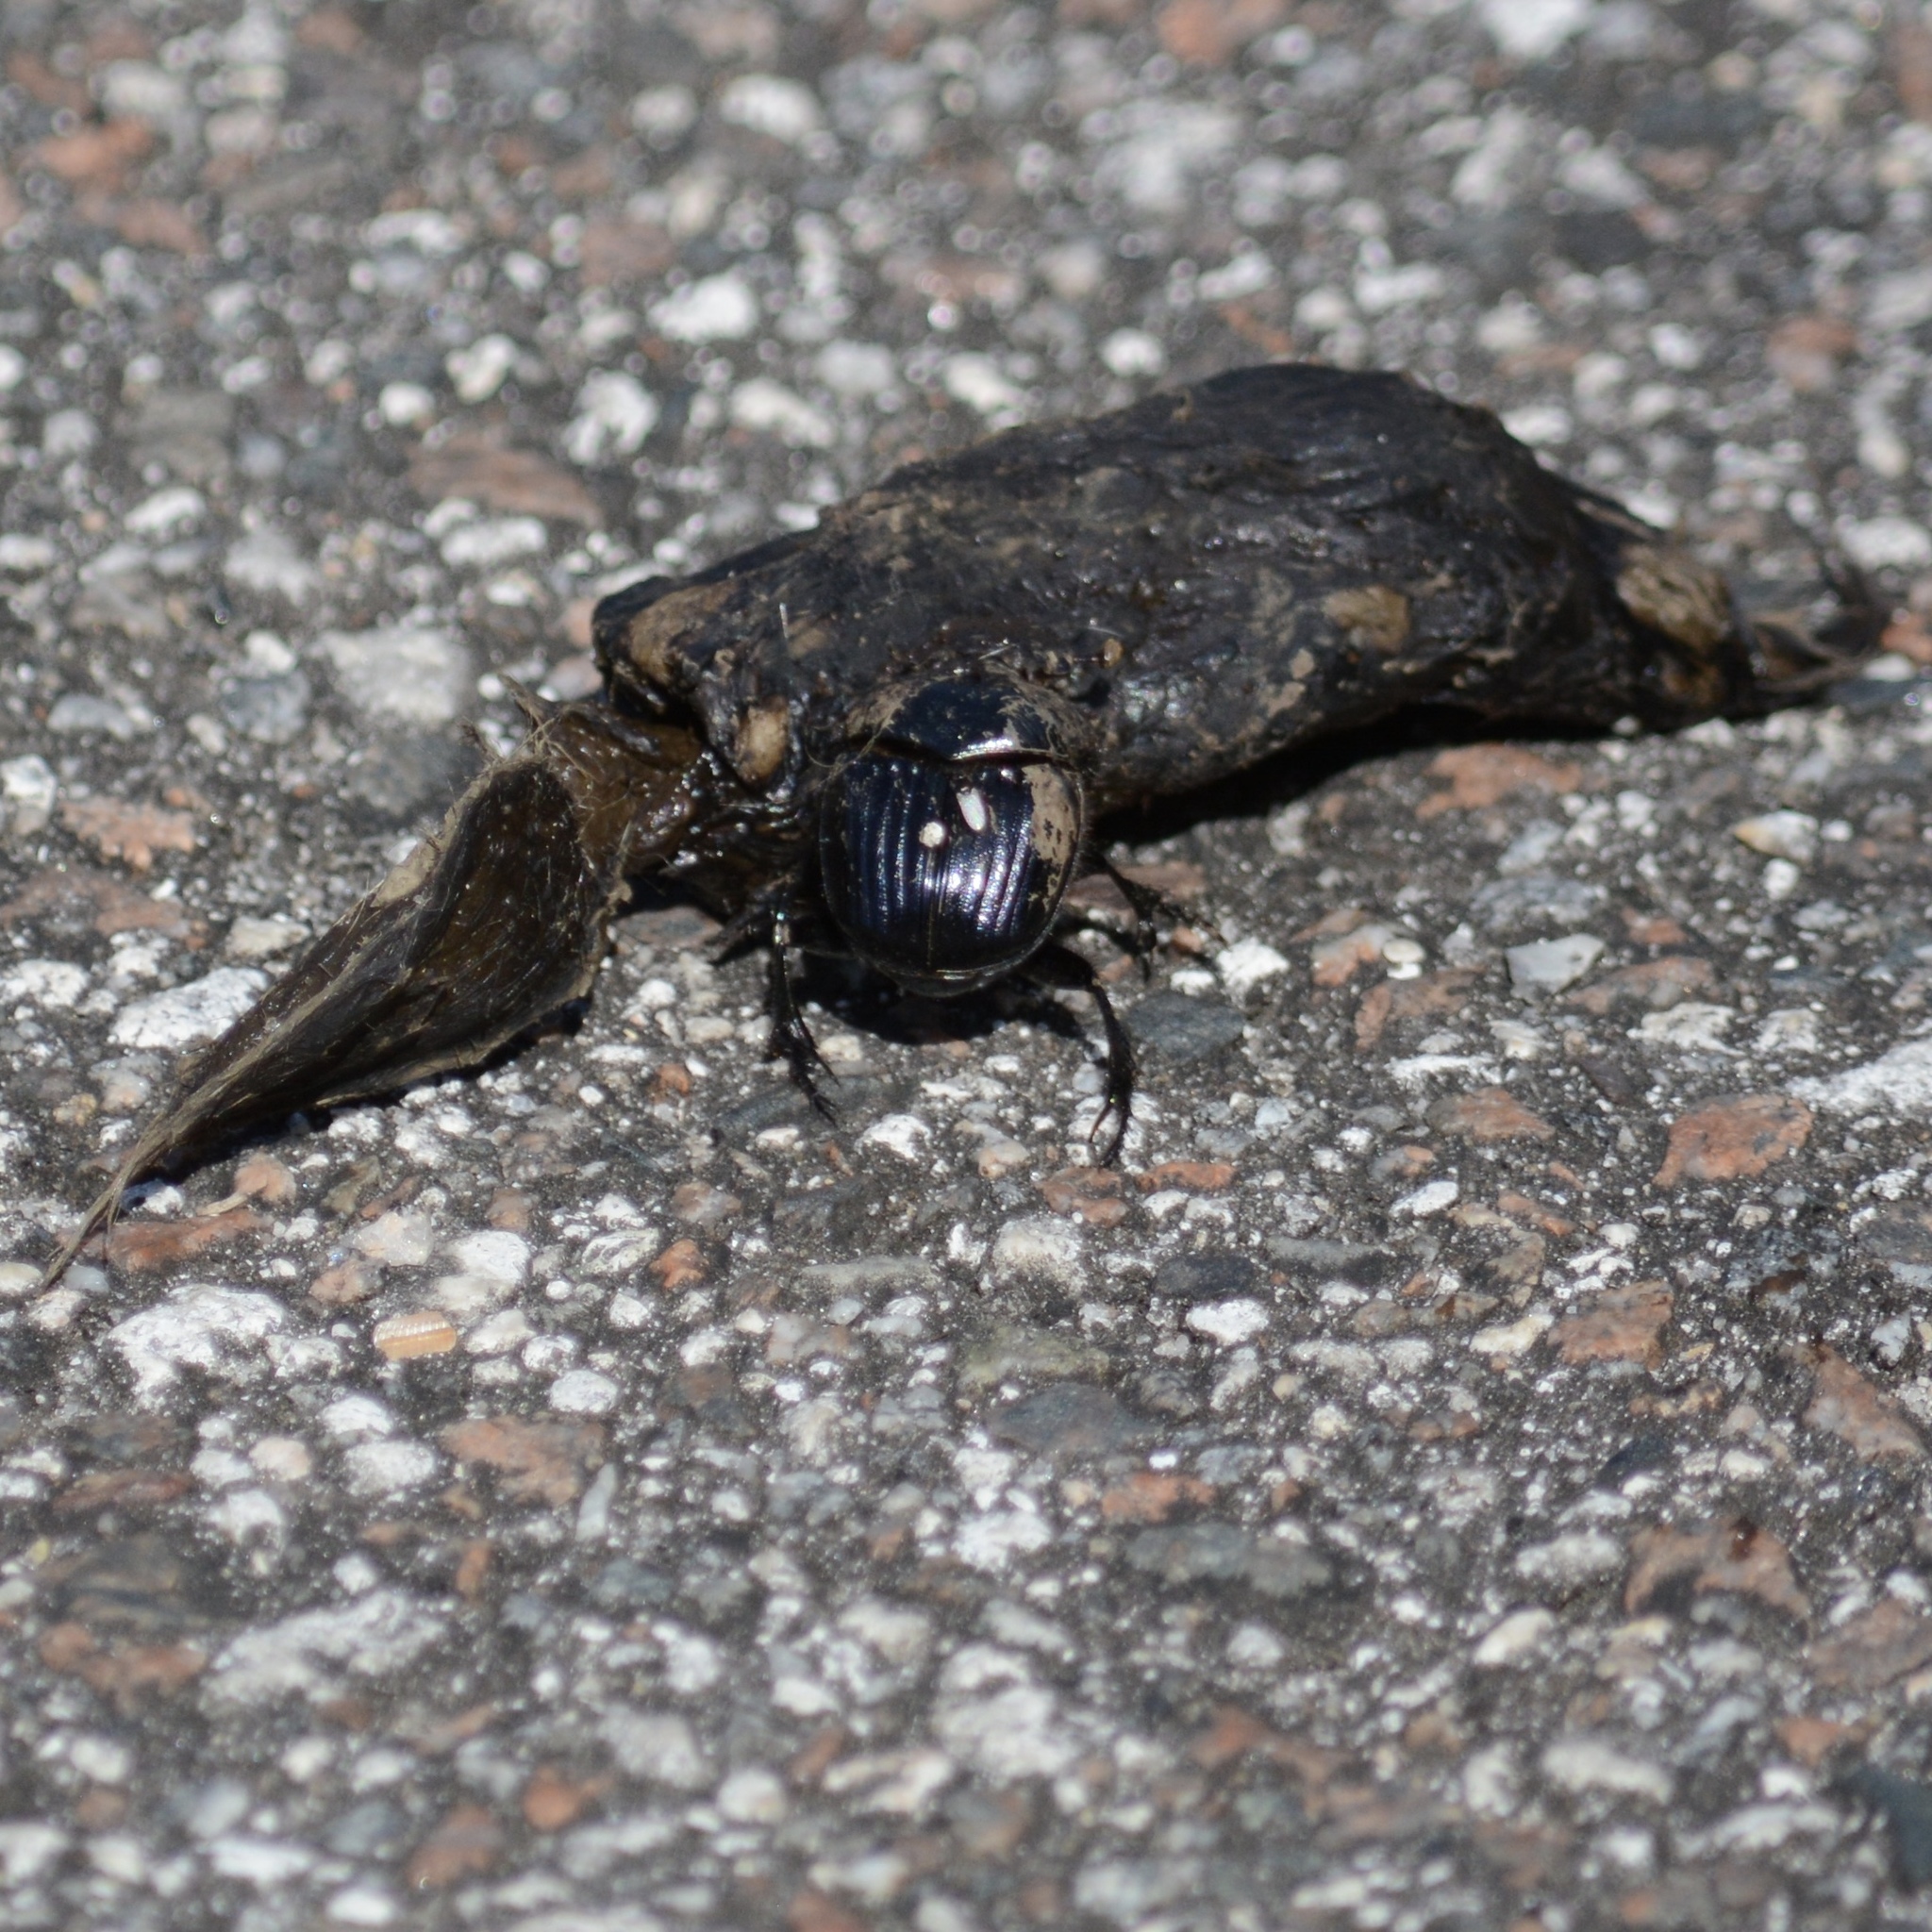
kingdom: Animalia
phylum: Arthropoda
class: Insecta
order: Coleoptera
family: Scarabaeidae
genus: Dichotomius
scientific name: Dichotomius carolinus
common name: Carolina copris
